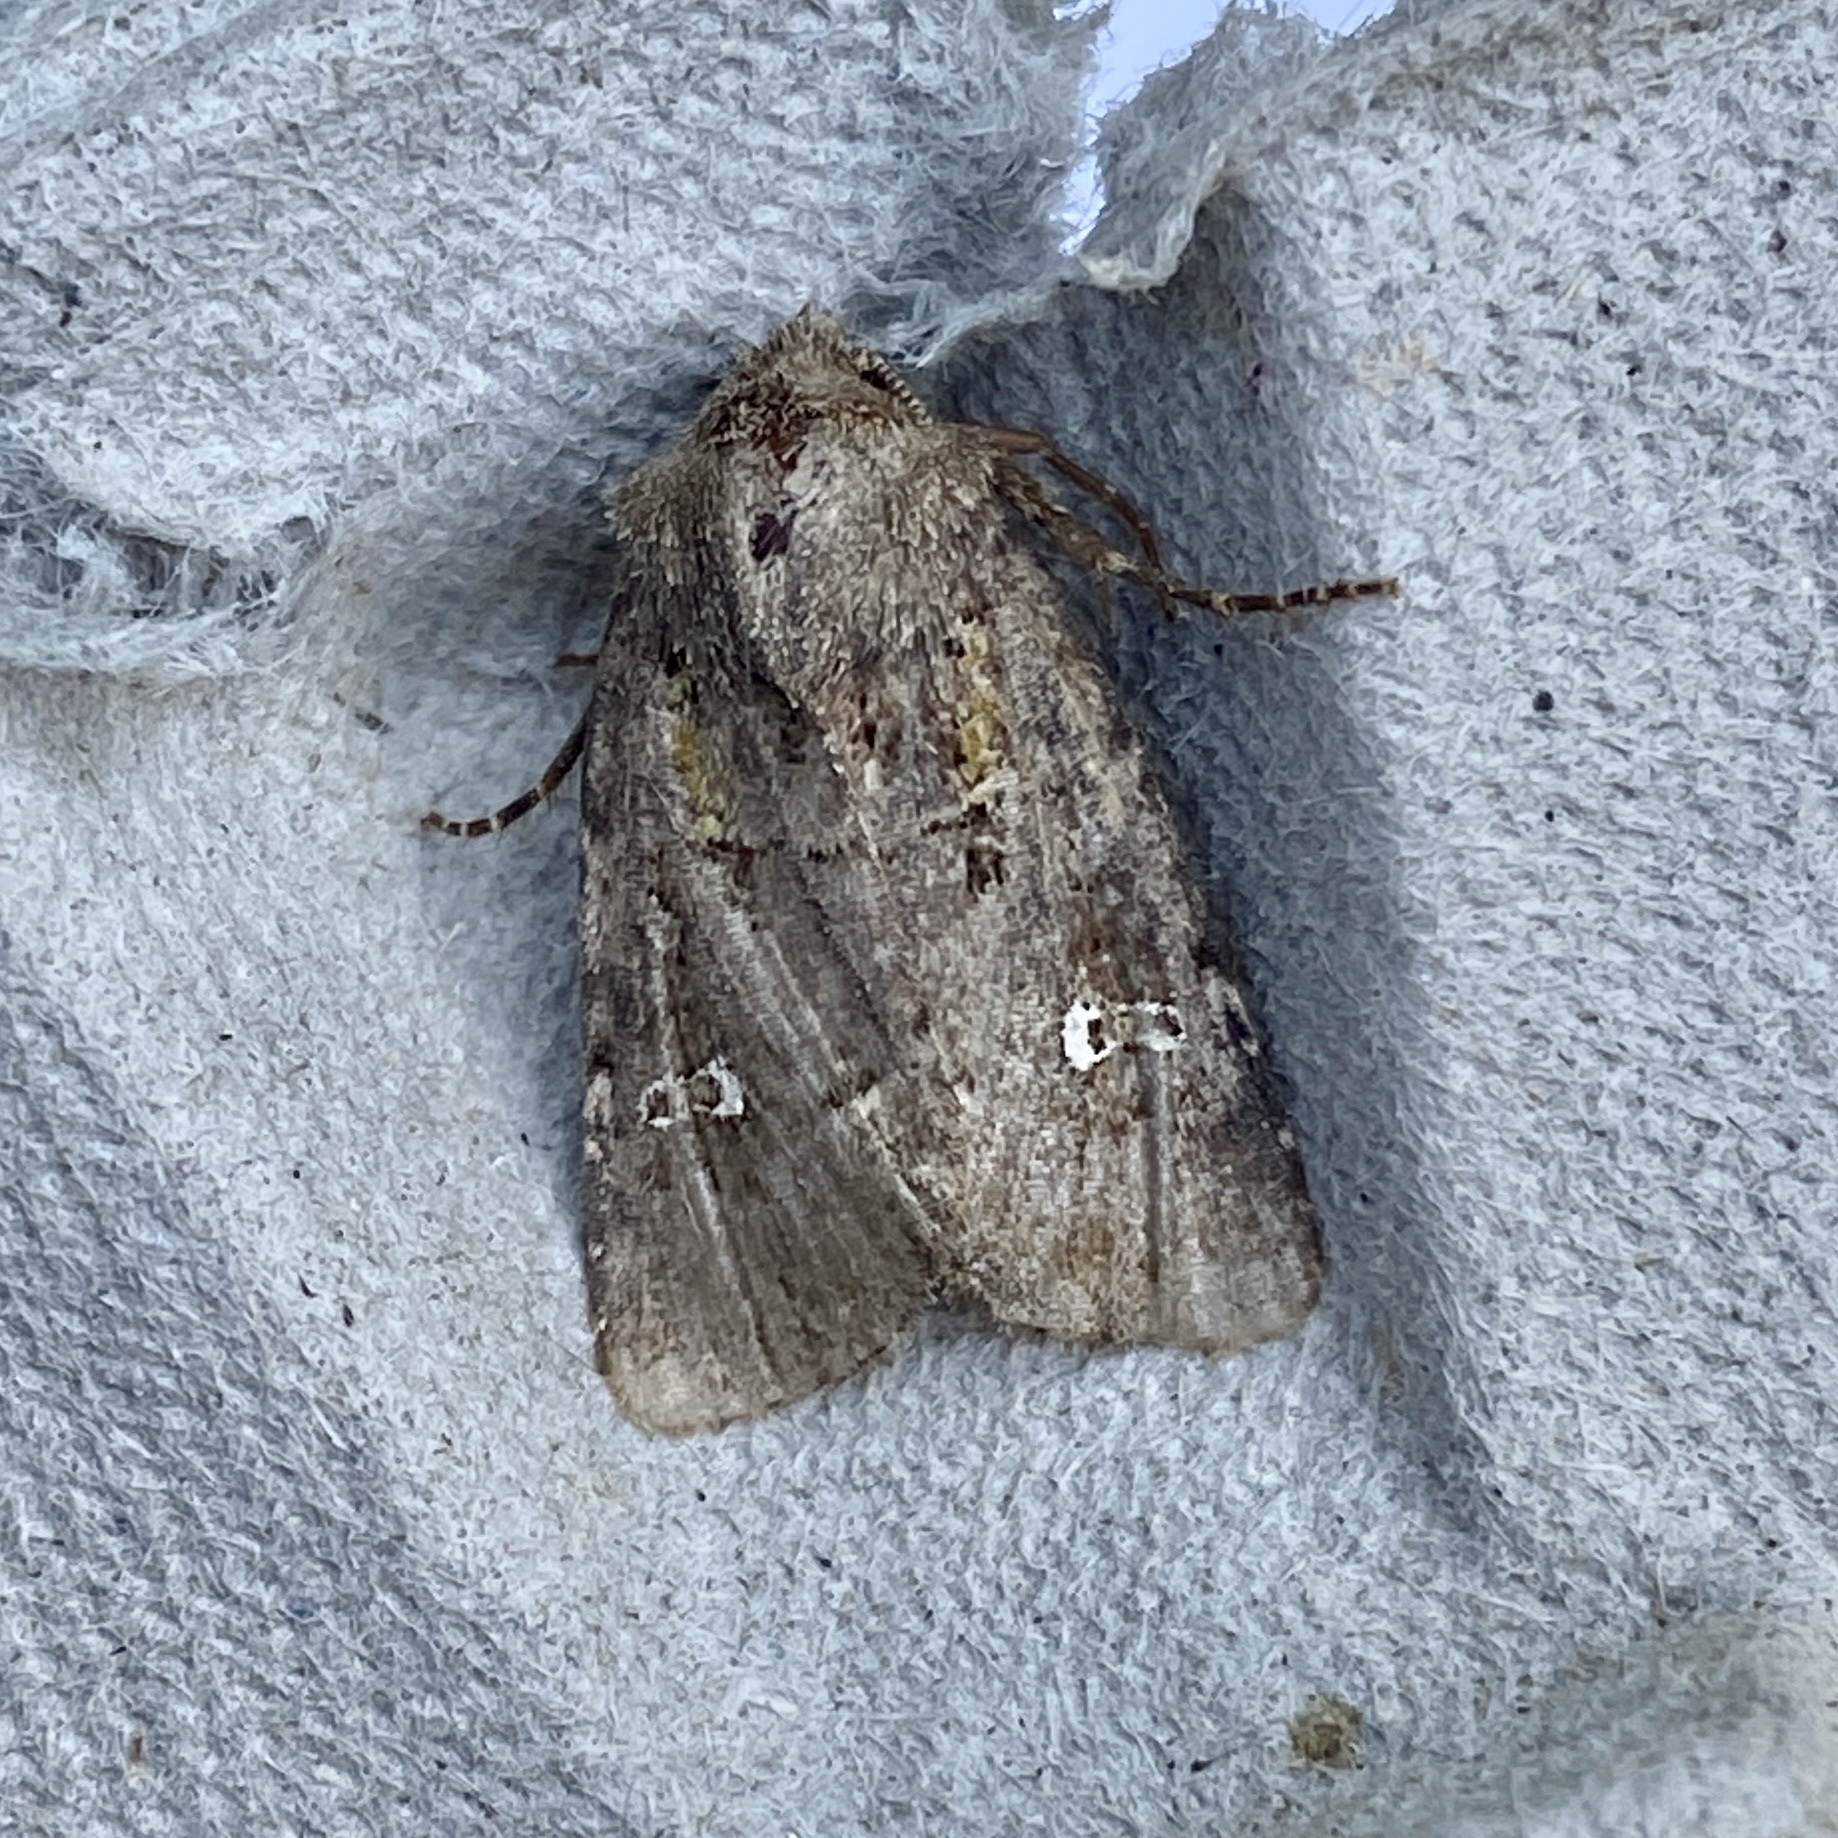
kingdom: Animalia
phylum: Arthropoda
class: Insecta
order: Lepidoptera
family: Noctuidae
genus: Lacinipolia
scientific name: Lacinipolia renigera
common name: Kidney-spotted minor
